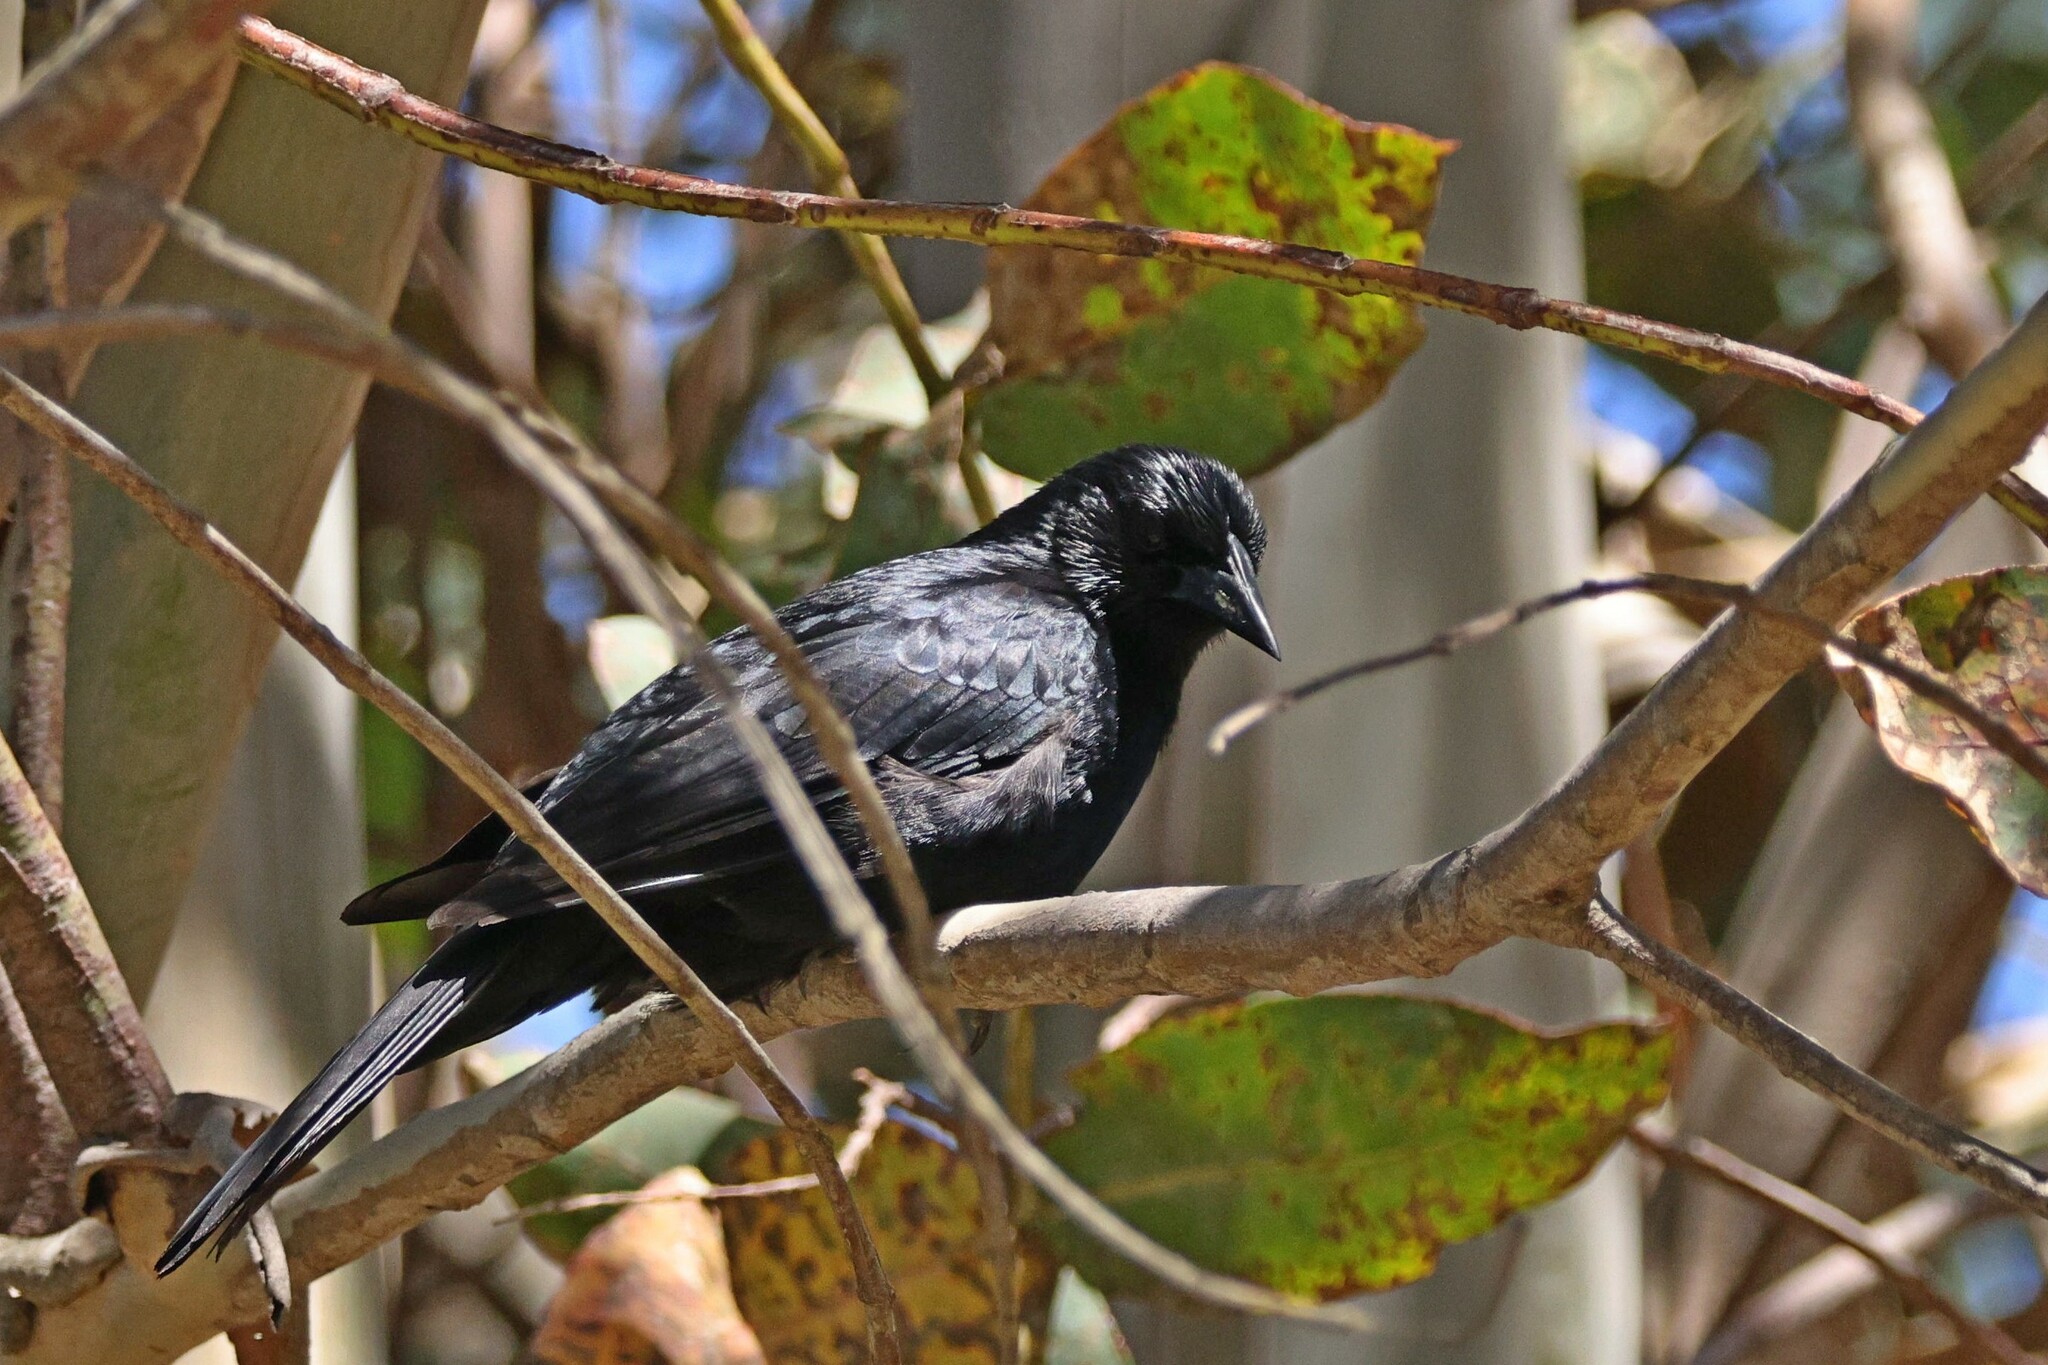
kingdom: Animalia
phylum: Chordata
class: Aves
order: Passeriformes
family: Icteridae
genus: Curaeus
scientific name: Curaeus curaeus
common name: Austral blackbird
